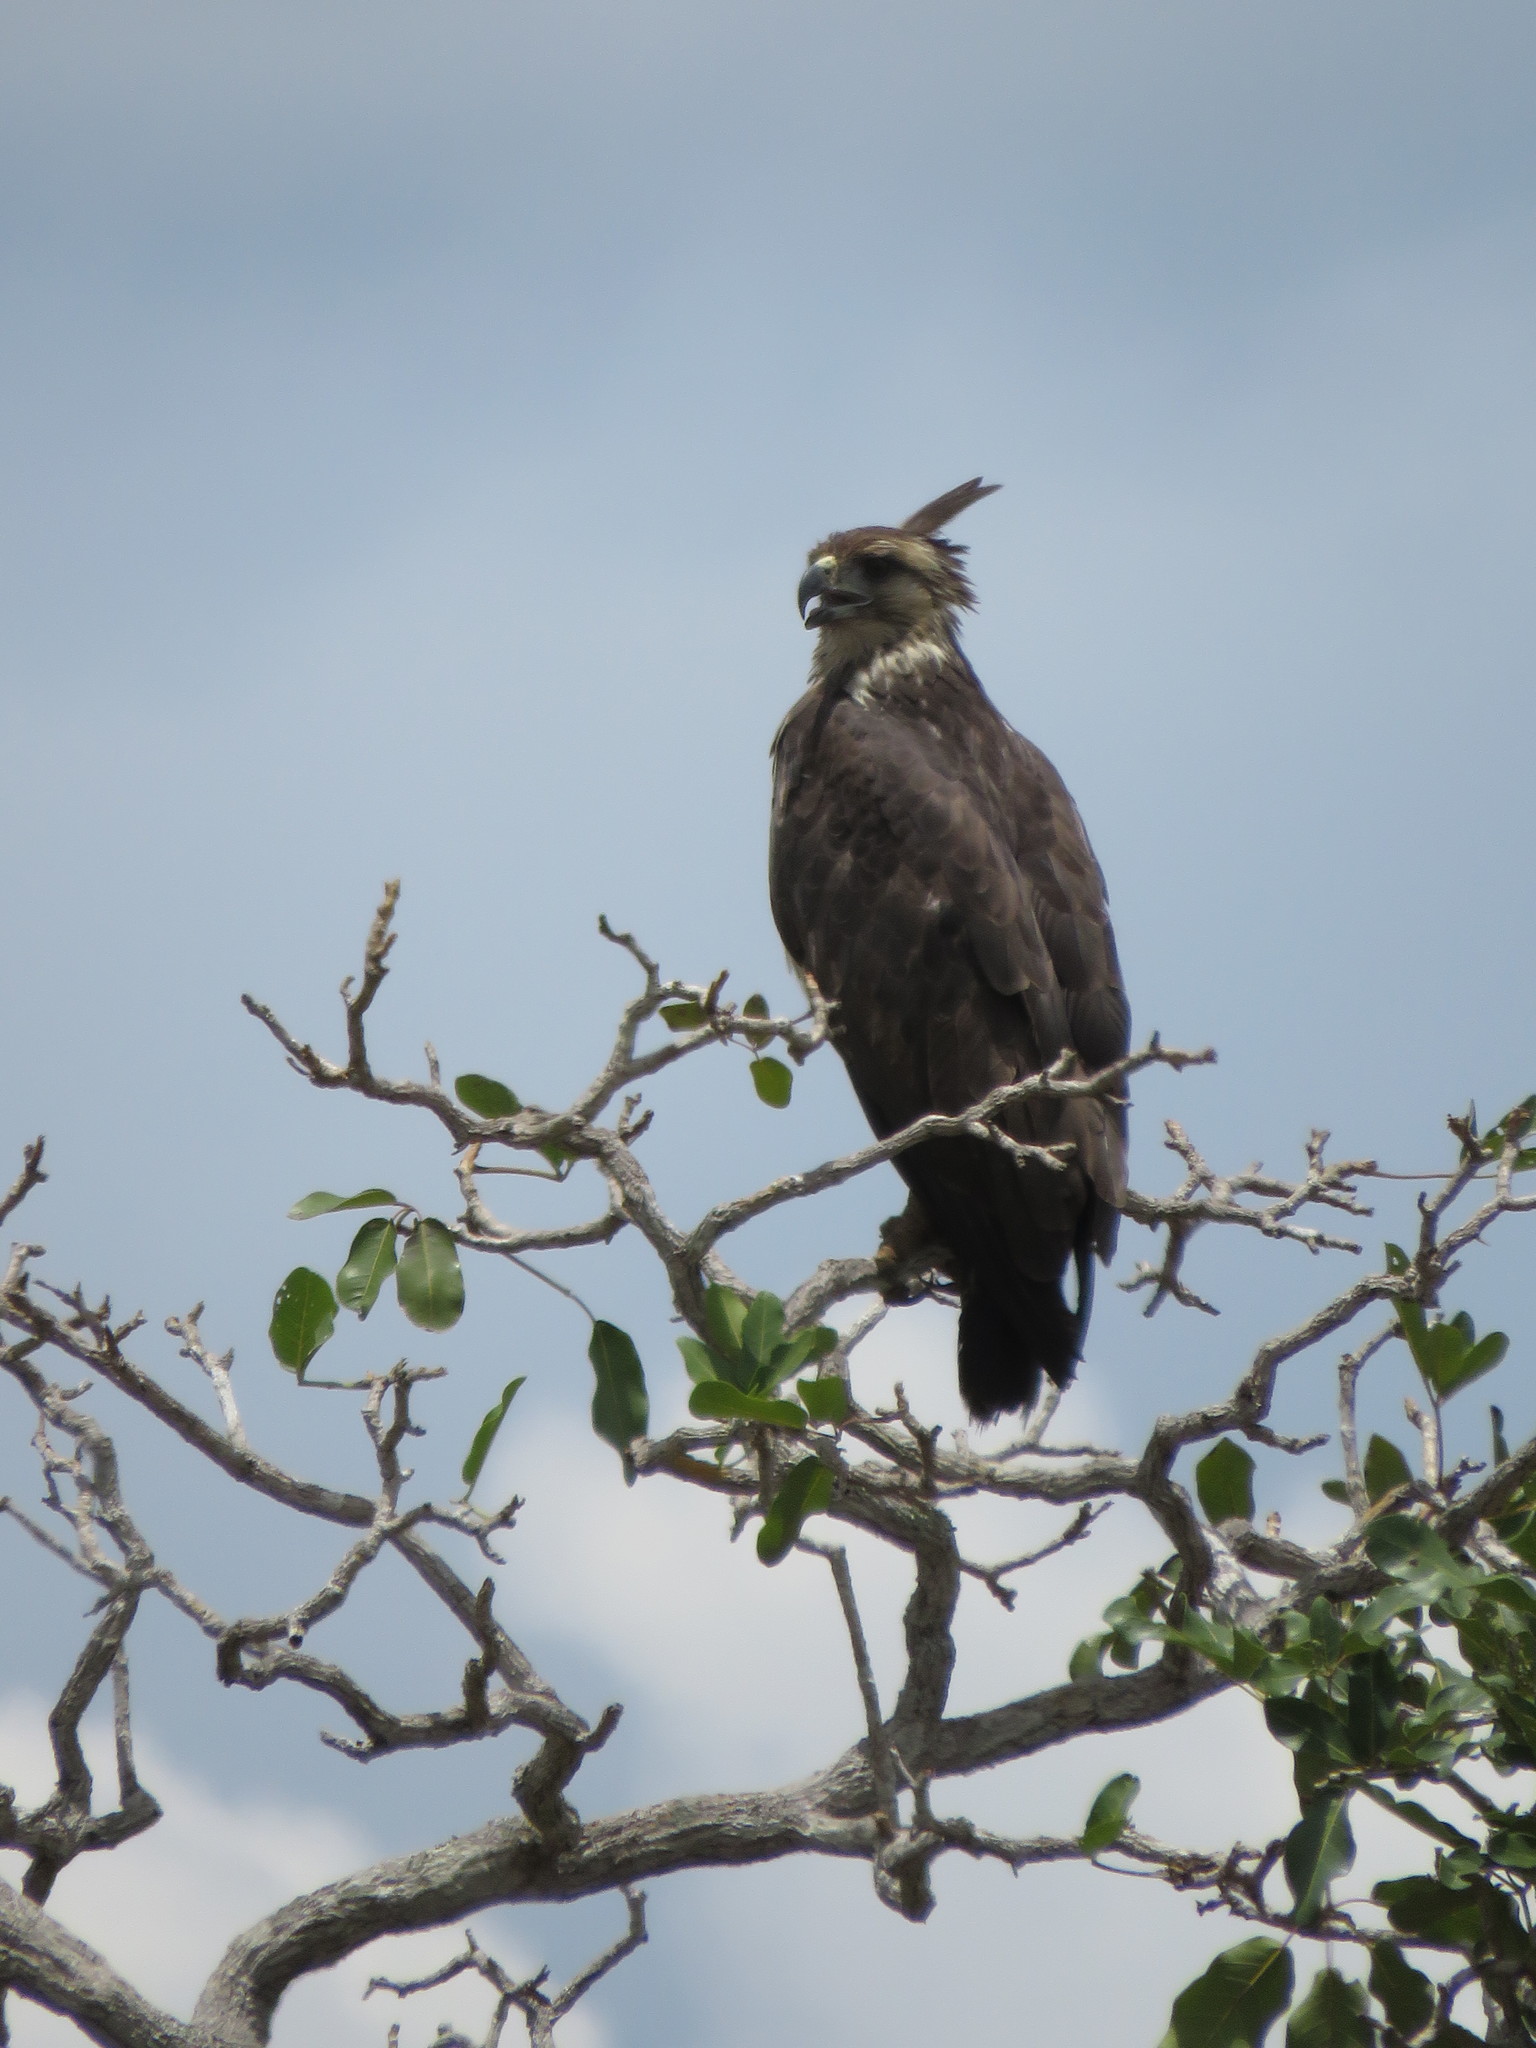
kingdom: Animalia
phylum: Chordata
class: Aves
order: Accipitriformes
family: Accipitridae
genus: Harpyhaliaetus
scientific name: Harpyhaliaetus coronatus
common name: Crowned solitary eagle
